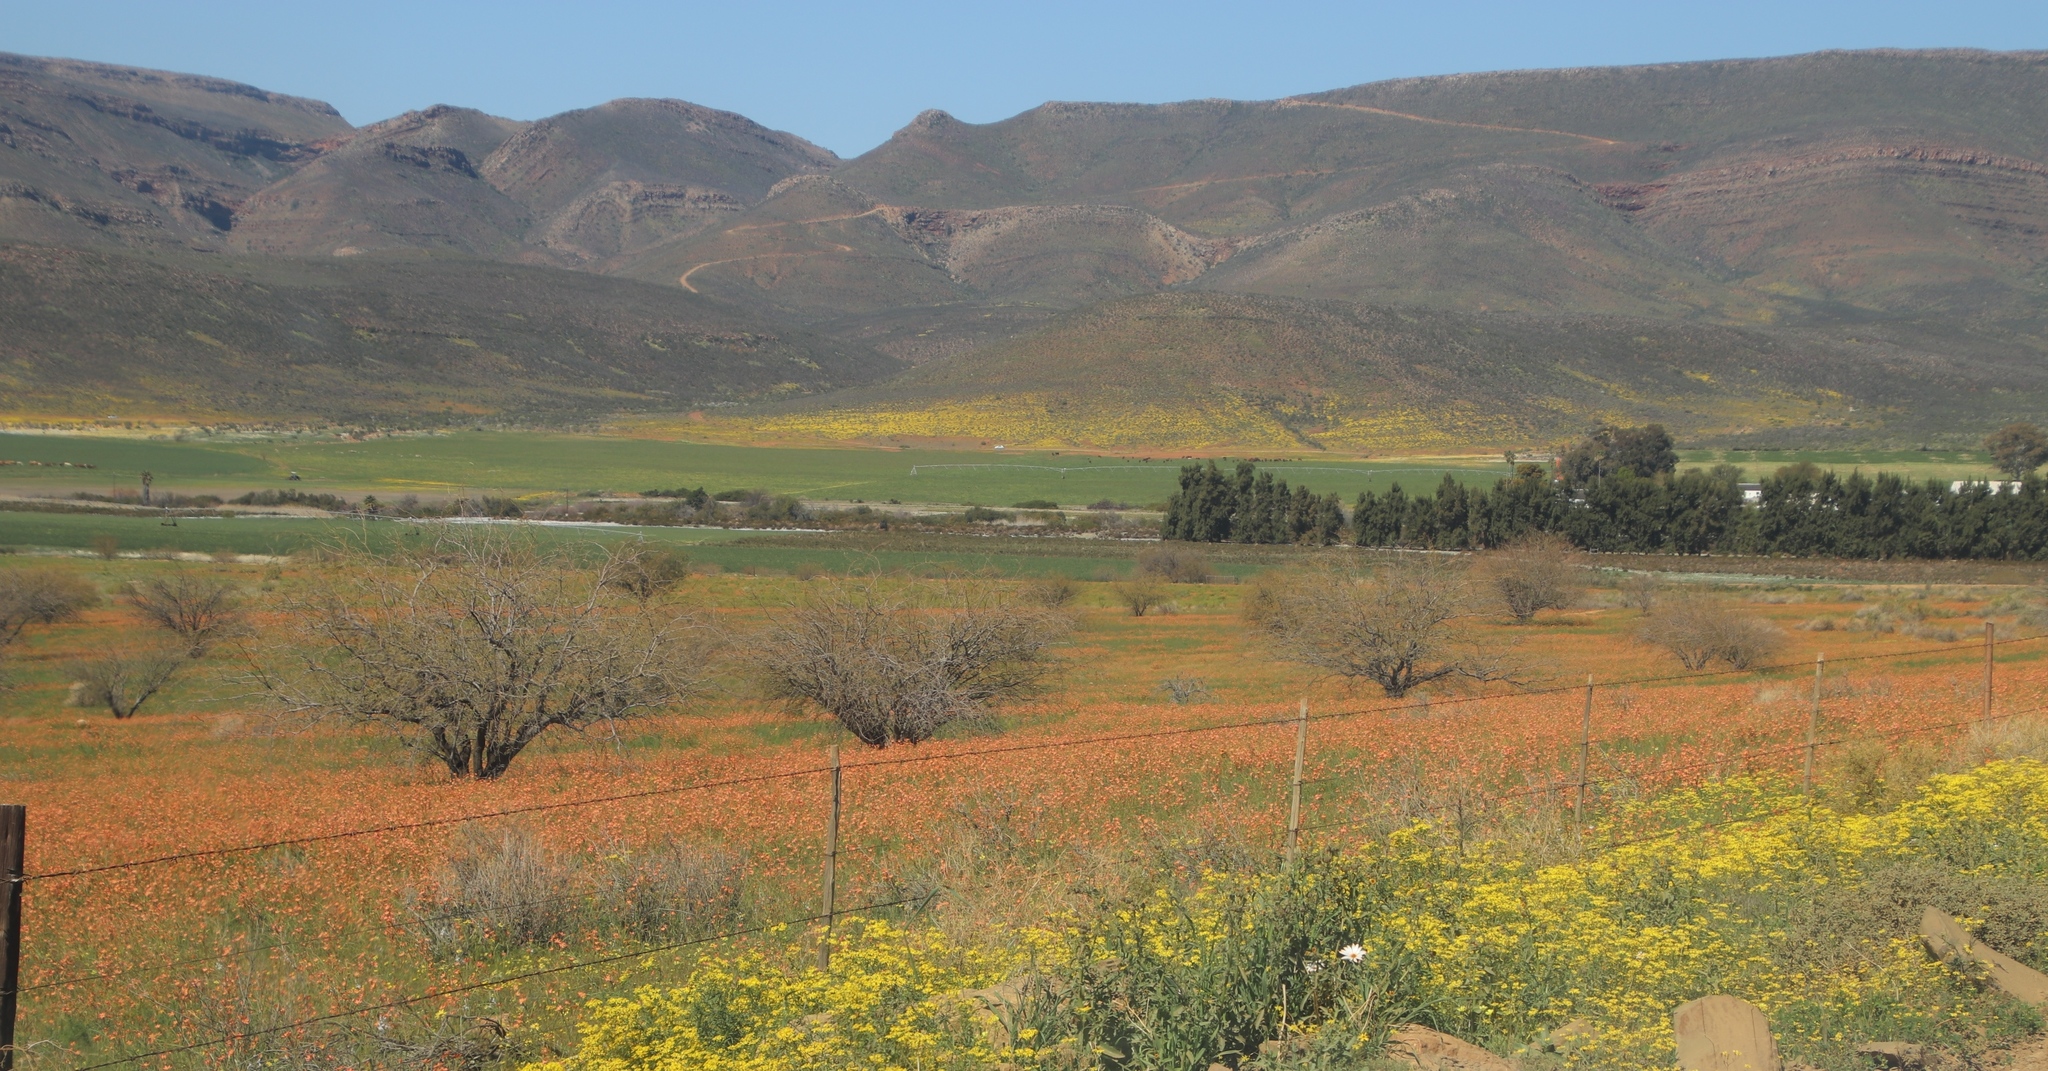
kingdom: Plantae
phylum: Tracheophyta
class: Liliopsida
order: Asparagales
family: Iridaceae
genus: Moraea
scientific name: Moraea flaccida
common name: One-leaf cape-tulip
